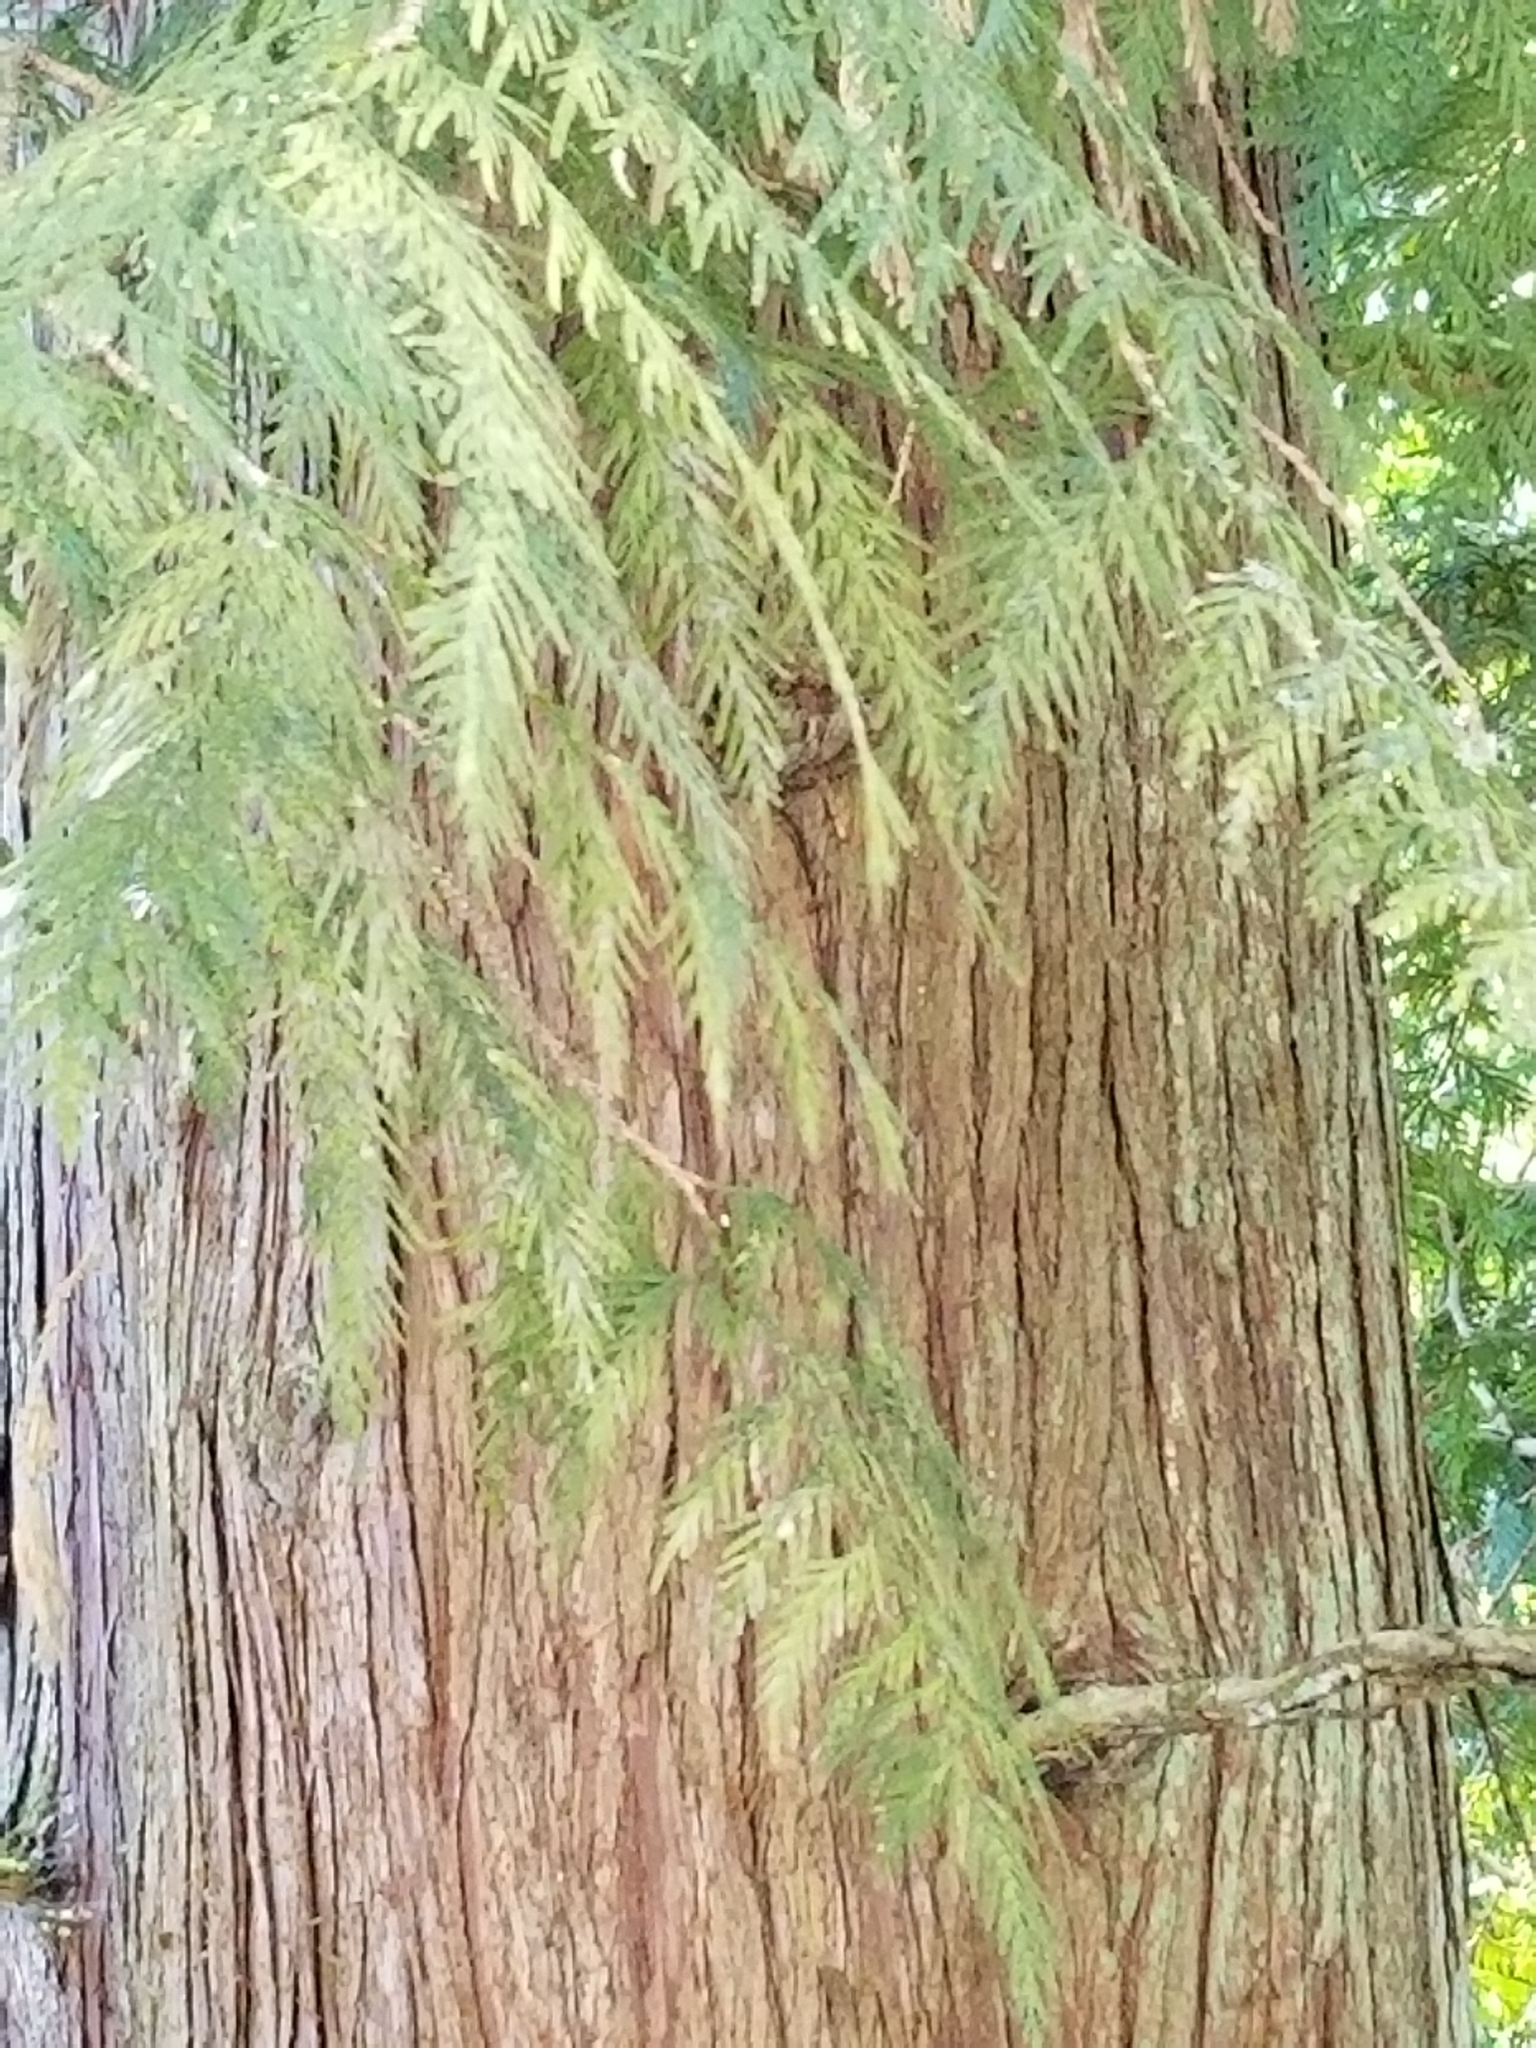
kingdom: Plantae
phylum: Tracheophyta
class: Pinopsida
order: Pinales
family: Cupressaceae
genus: Thuja
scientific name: Thuja plicata
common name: Western red-cedar
